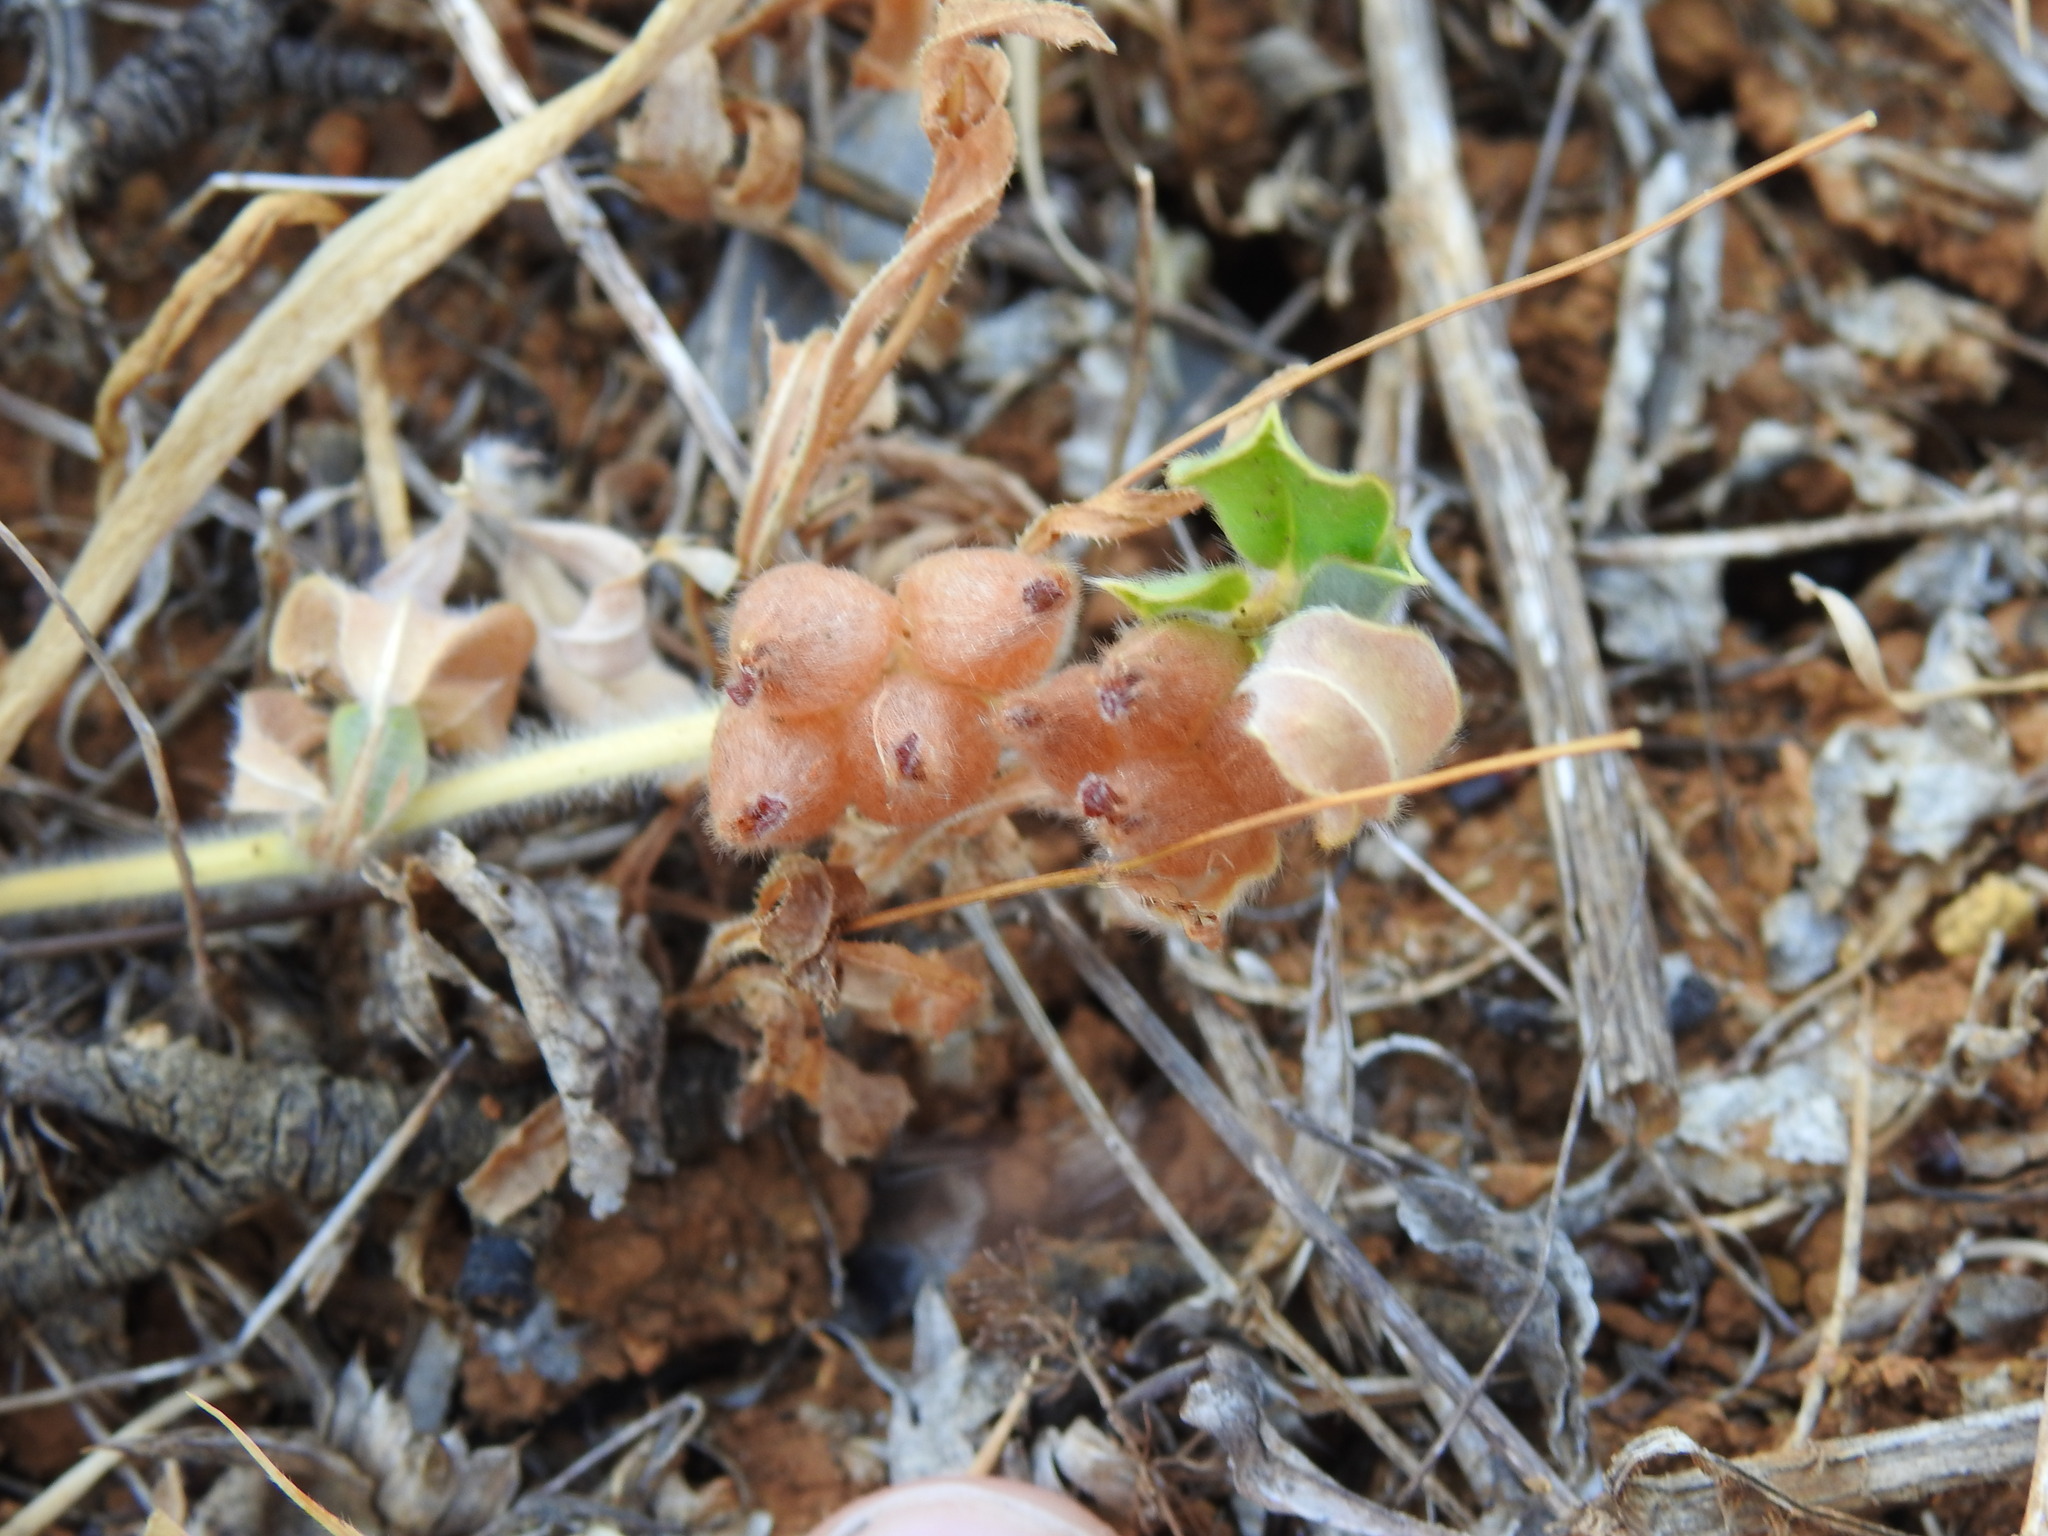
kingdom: Plantae
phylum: Tracheophyta
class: Magnoliopsida
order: Fabales
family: Fabaceae
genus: Tripodion
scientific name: Tripodion tetraphyllum
